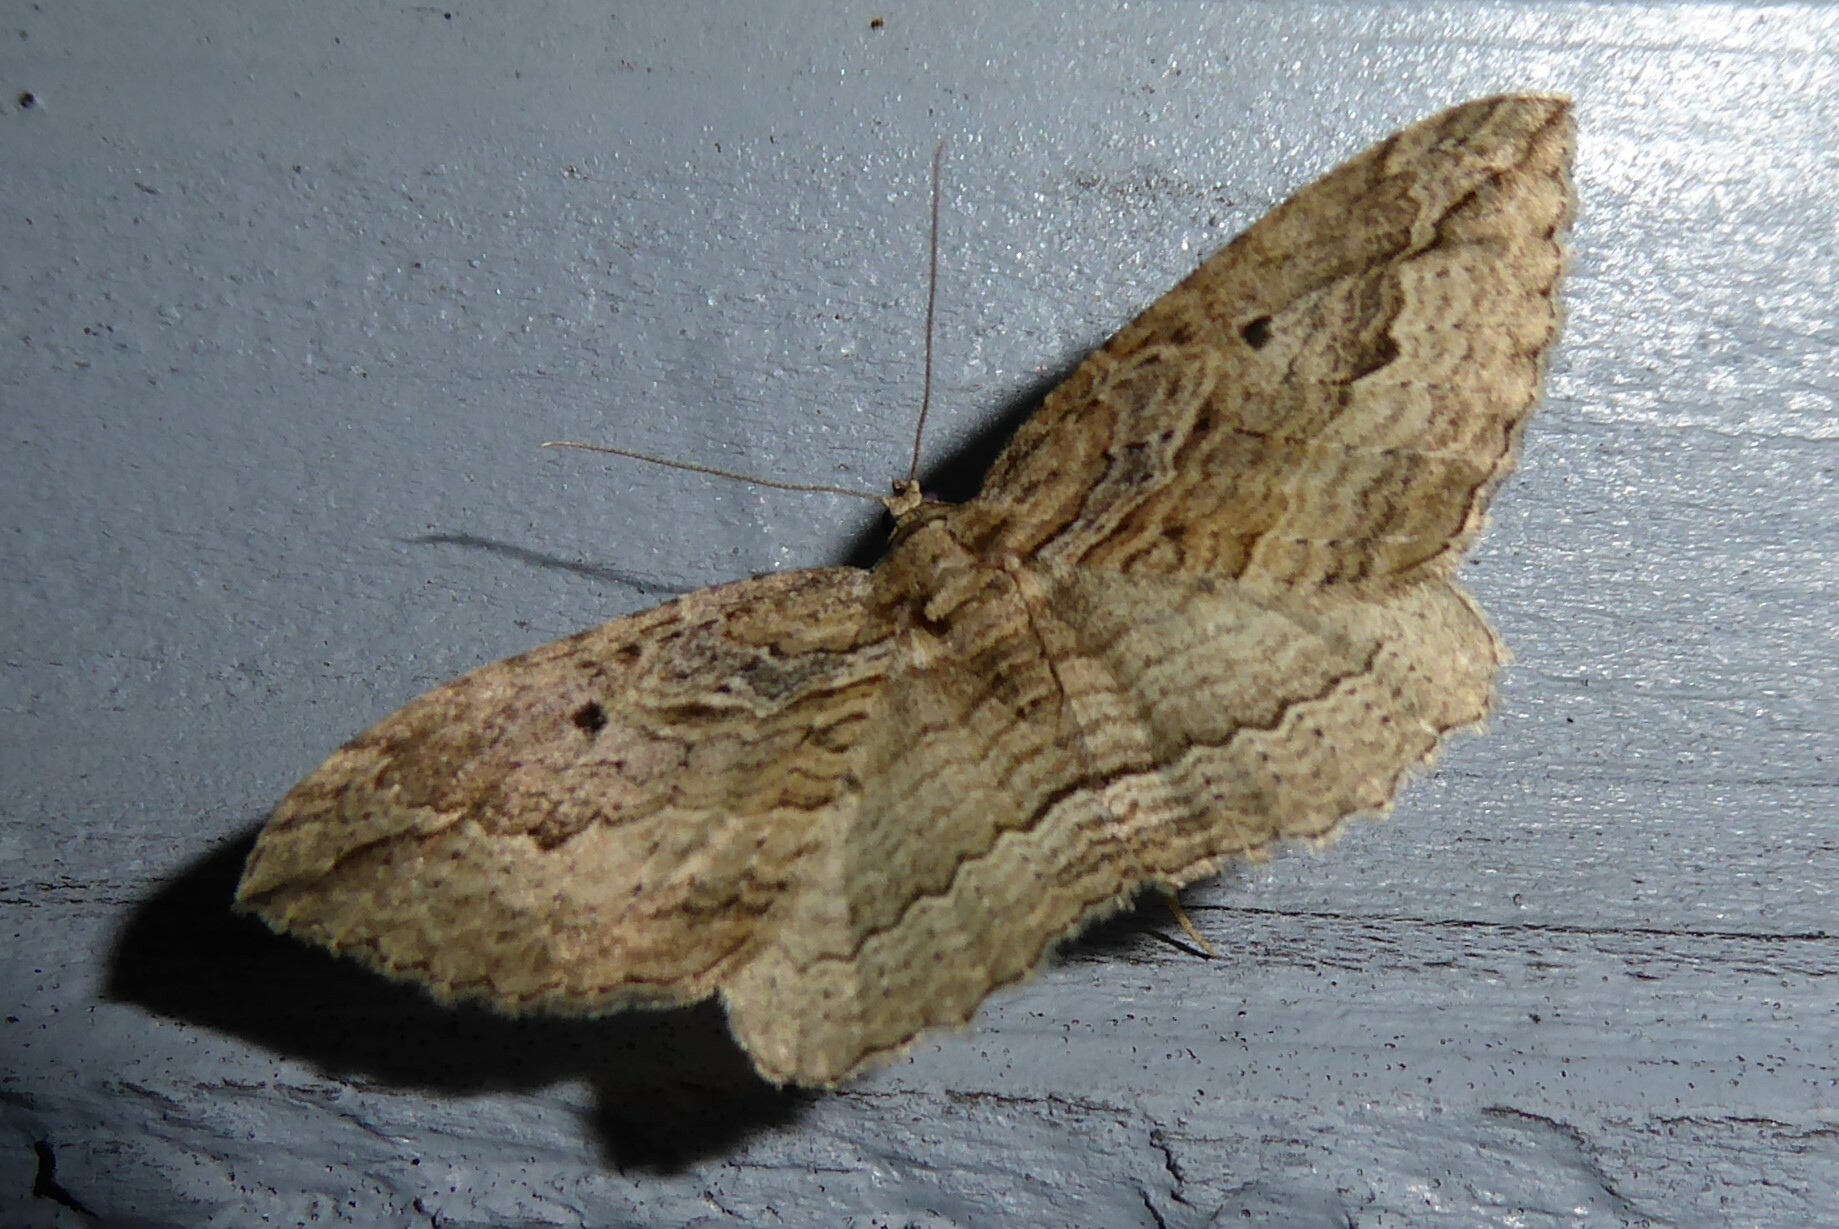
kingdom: Animalia
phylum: Arthropoda
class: Insecta
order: Lepidoptera
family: Geometridae
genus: Austrocidaria
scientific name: Austrocidaria gobiata
